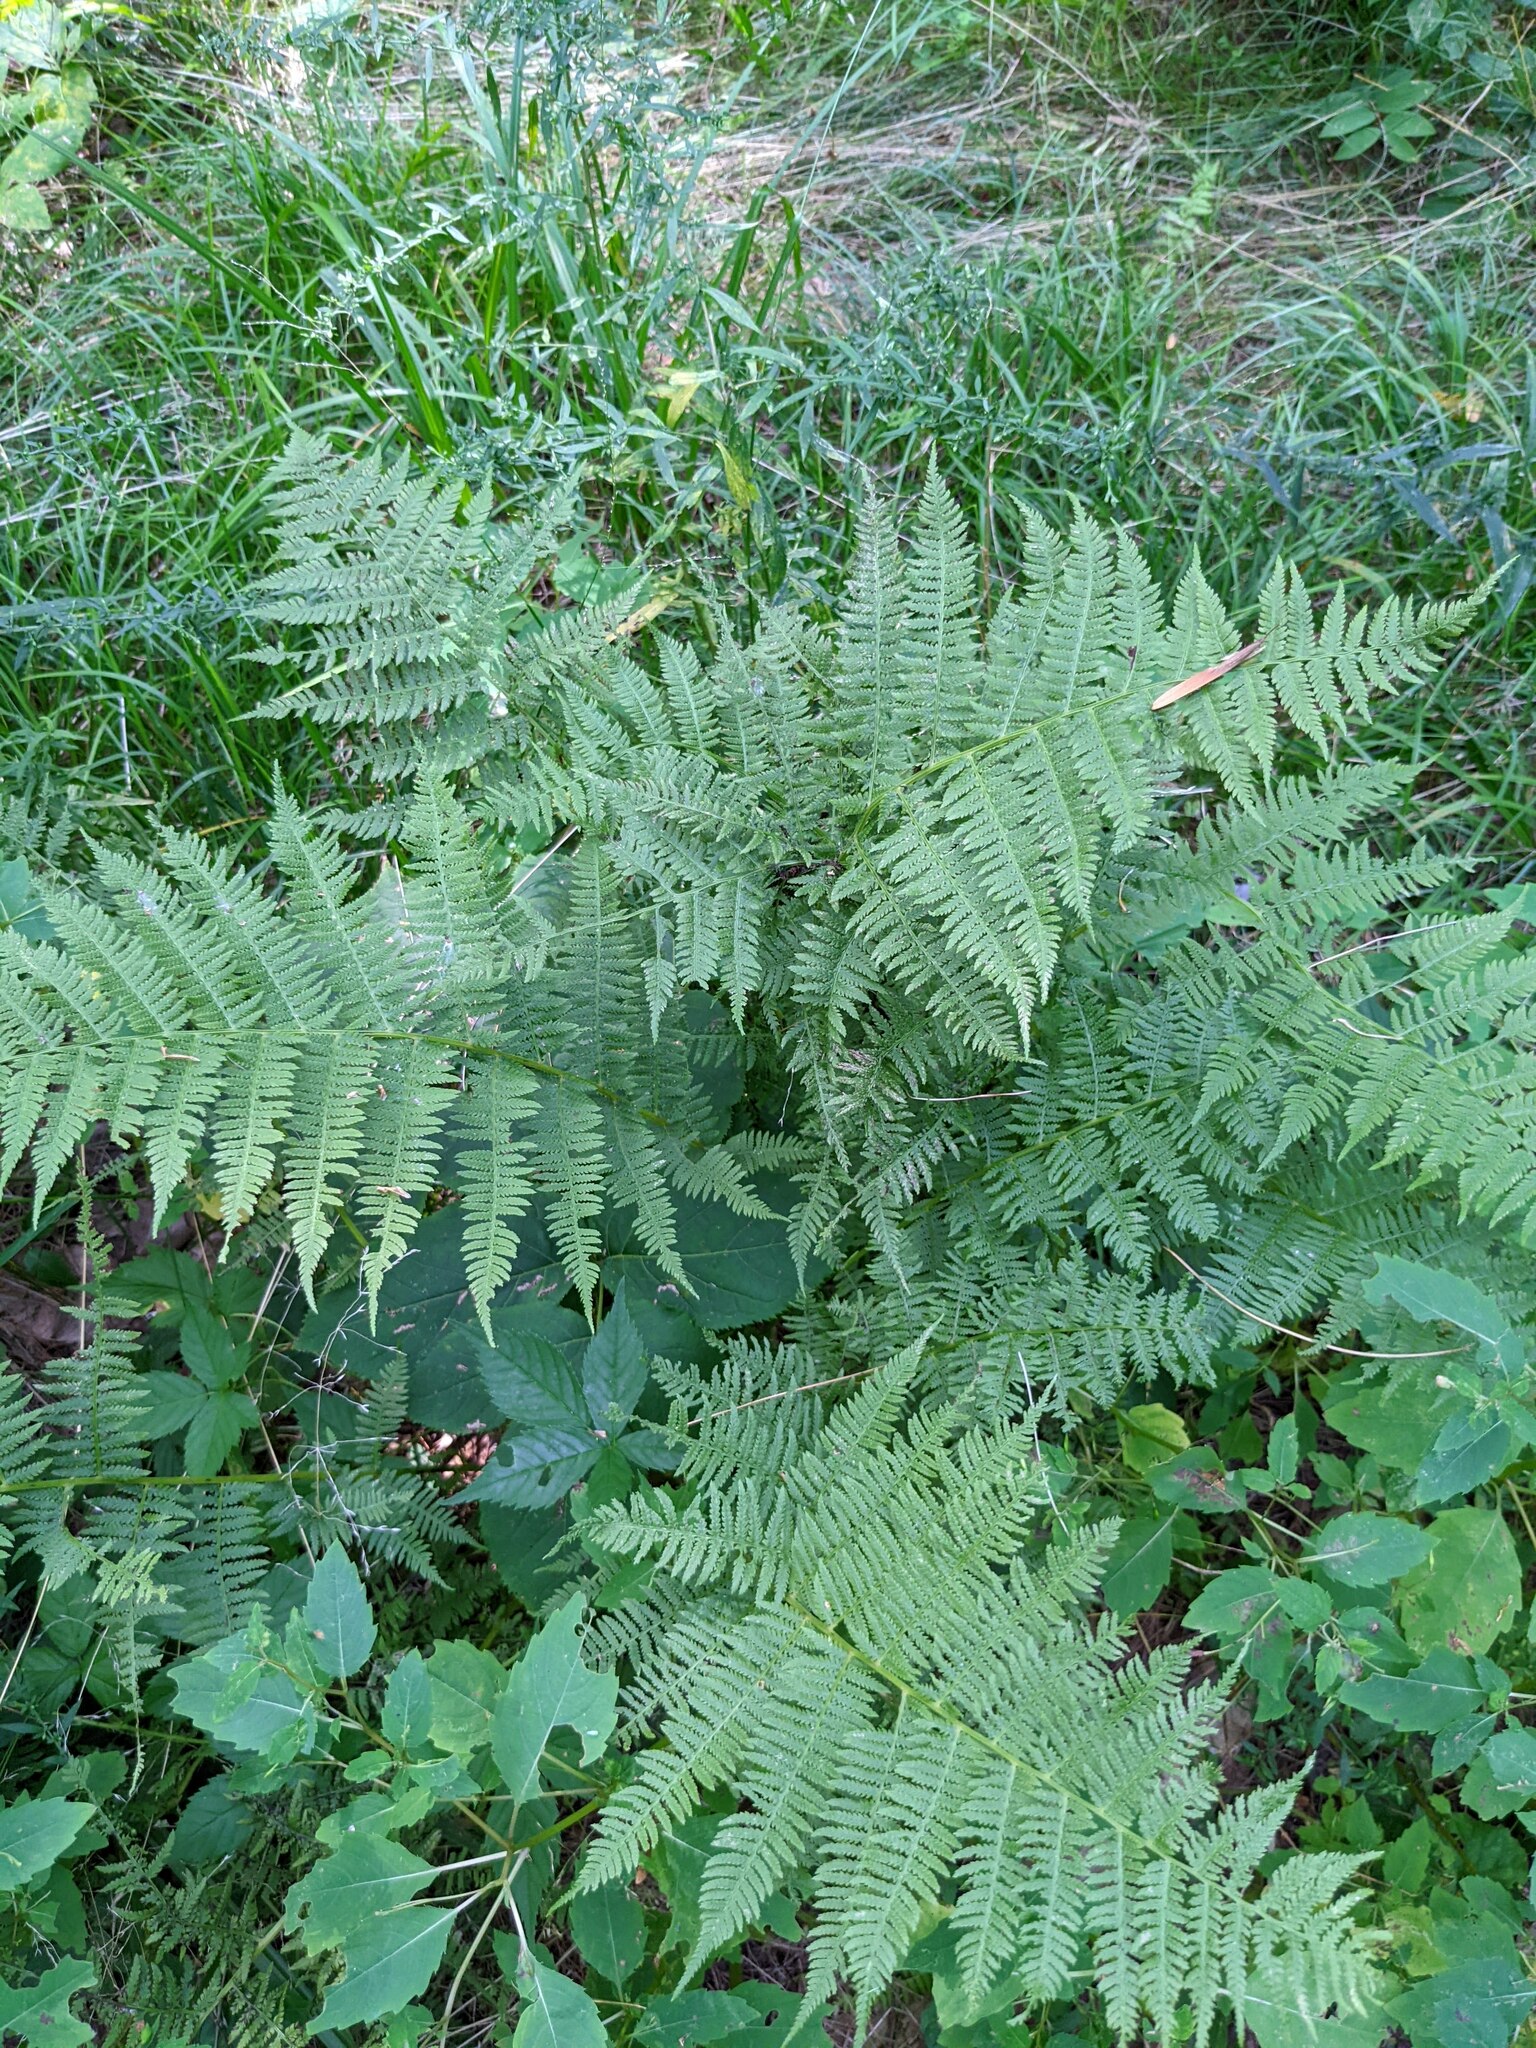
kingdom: Plantae
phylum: Tracheophyta
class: Polypodiopsida
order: Polypodiales
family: Athyriaceae
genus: Athyrium
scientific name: Athyrium angustum
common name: Northern lady fern
